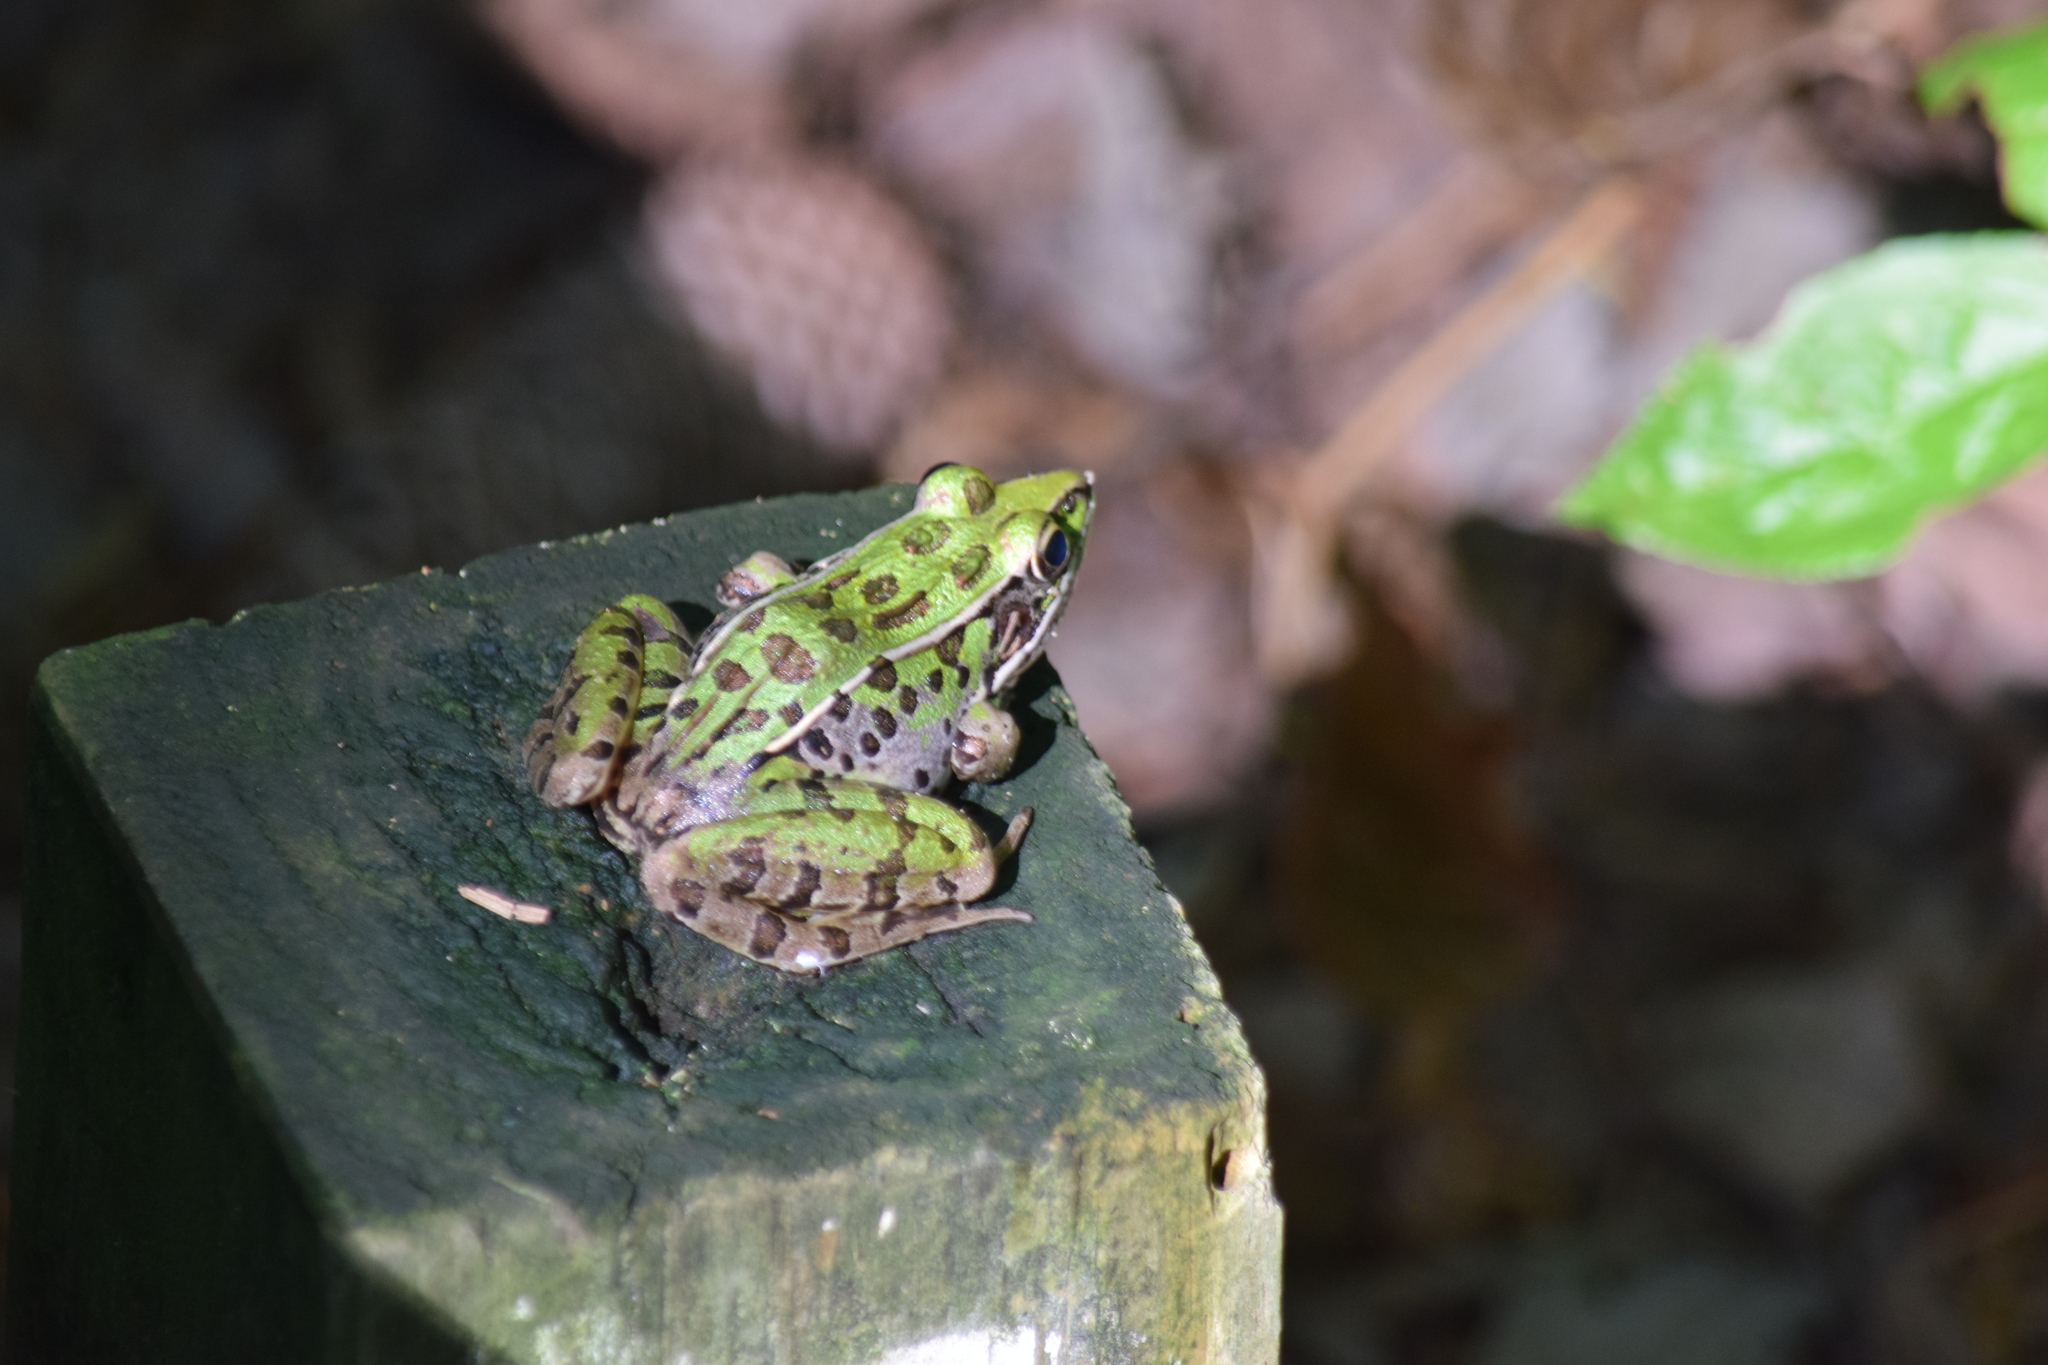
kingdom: Animalia
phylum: Chordata
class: Amphibia
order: Anura
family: Ranidae
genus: Lithobates
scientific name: Lithobates sphenocephalus
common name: Southern leopard frog
